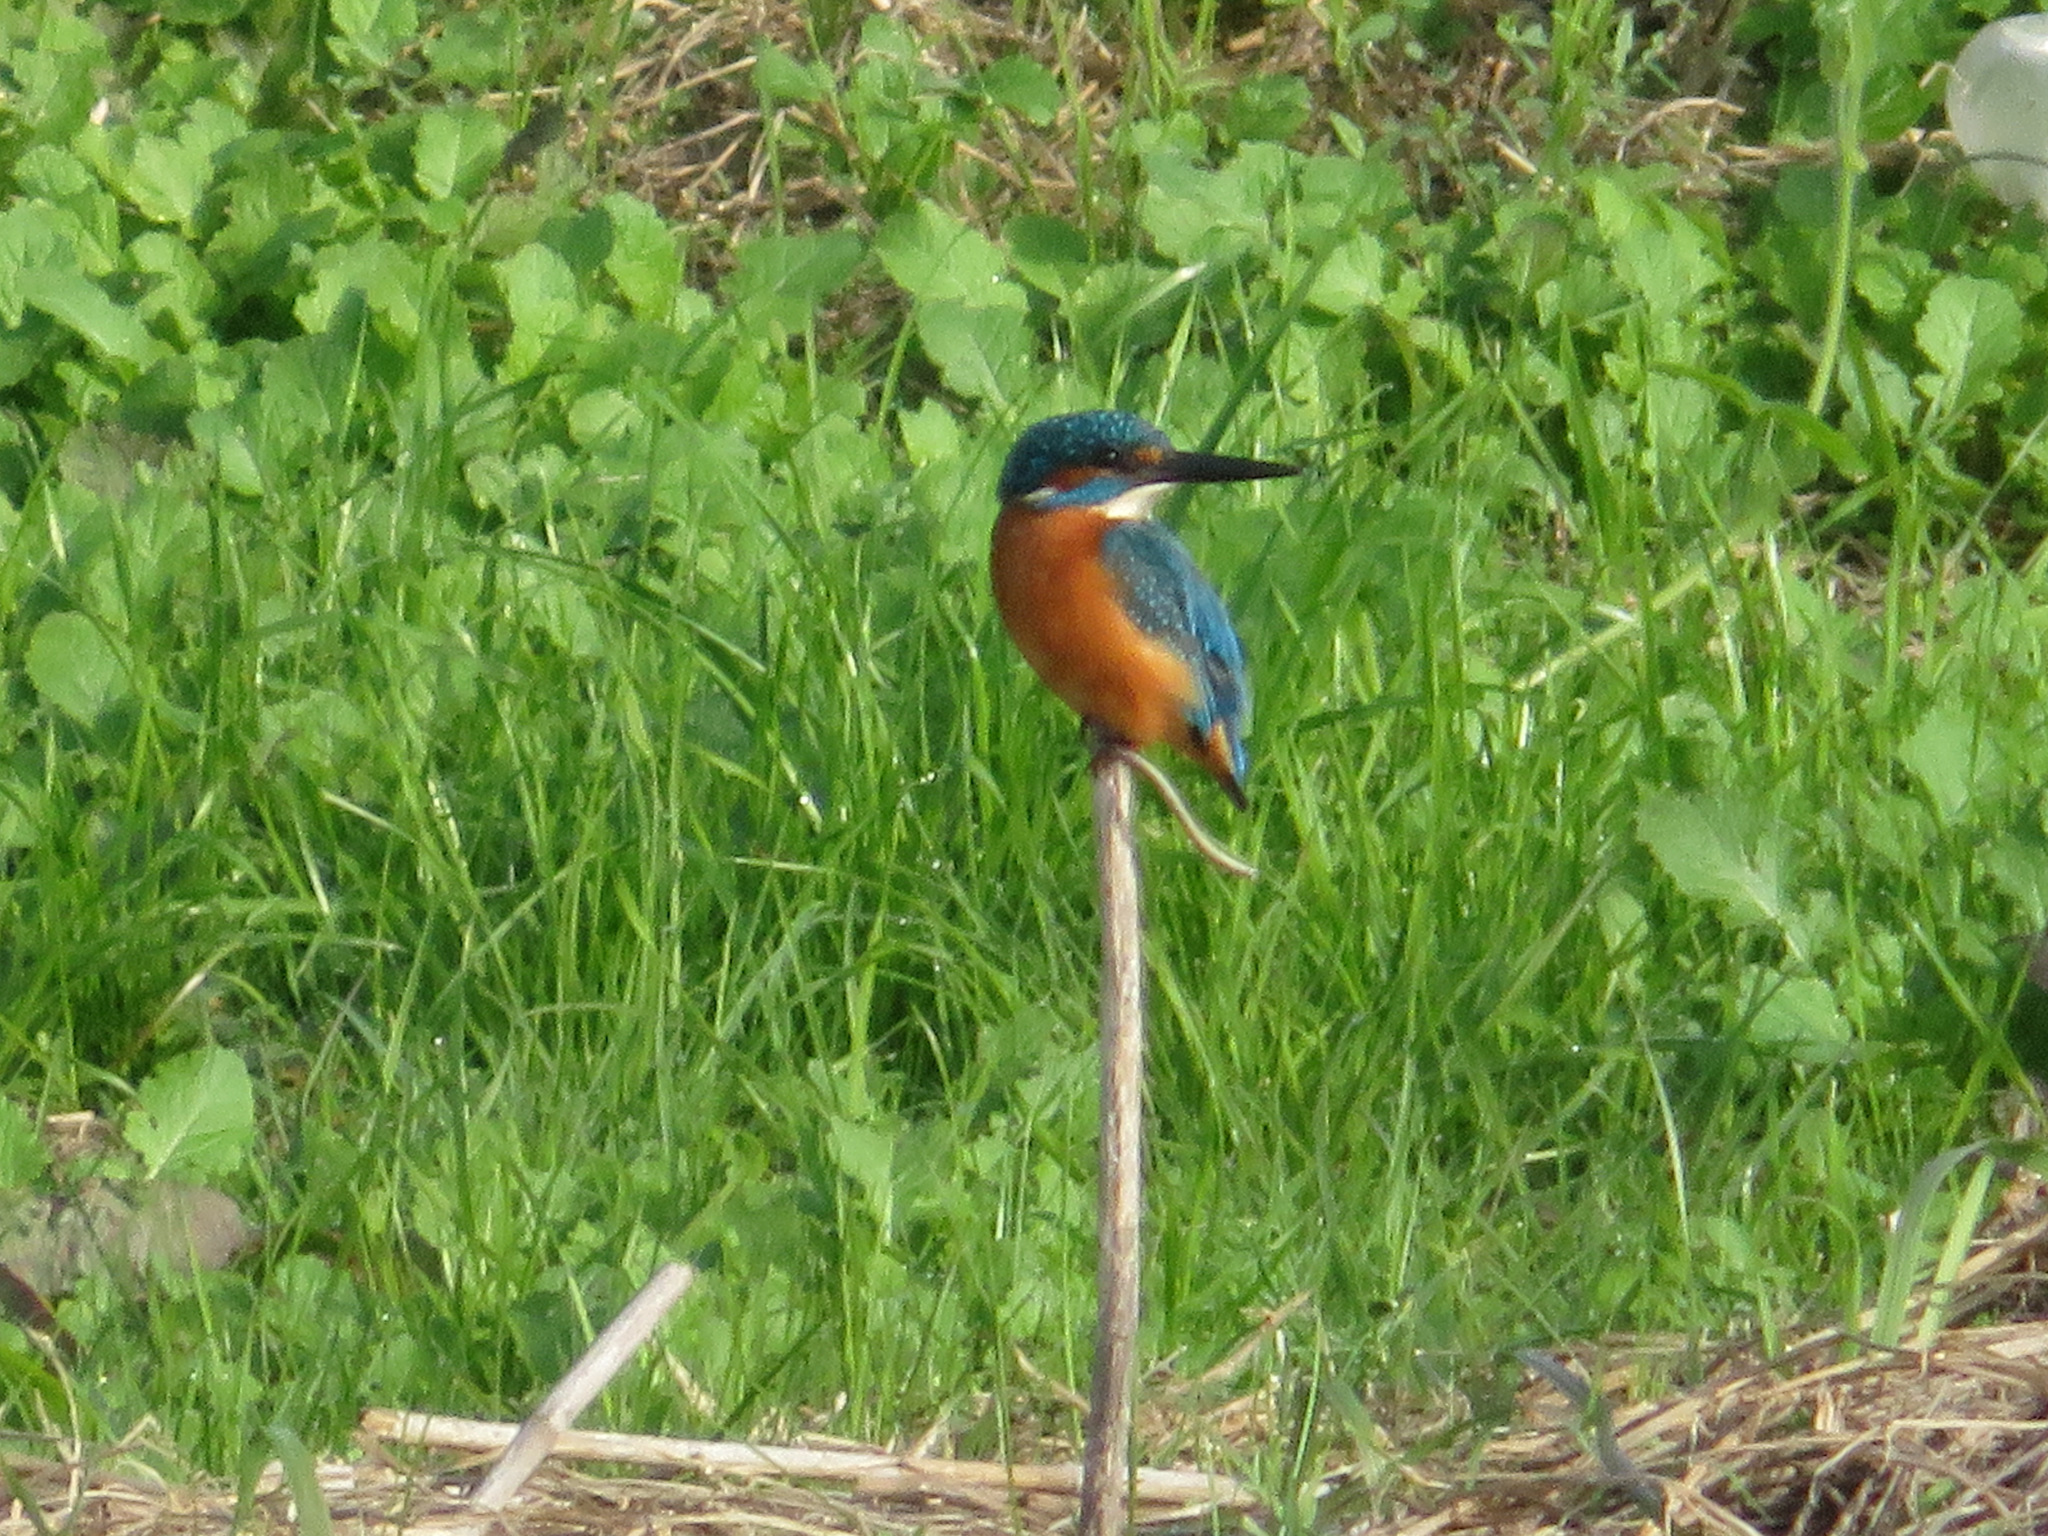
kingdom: Animalia
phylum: Chordata
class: Aves
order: Coraciiformes
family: Alcedinidae
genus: Alcedo
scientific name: Alcedo atthis
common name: Common kingfisher
